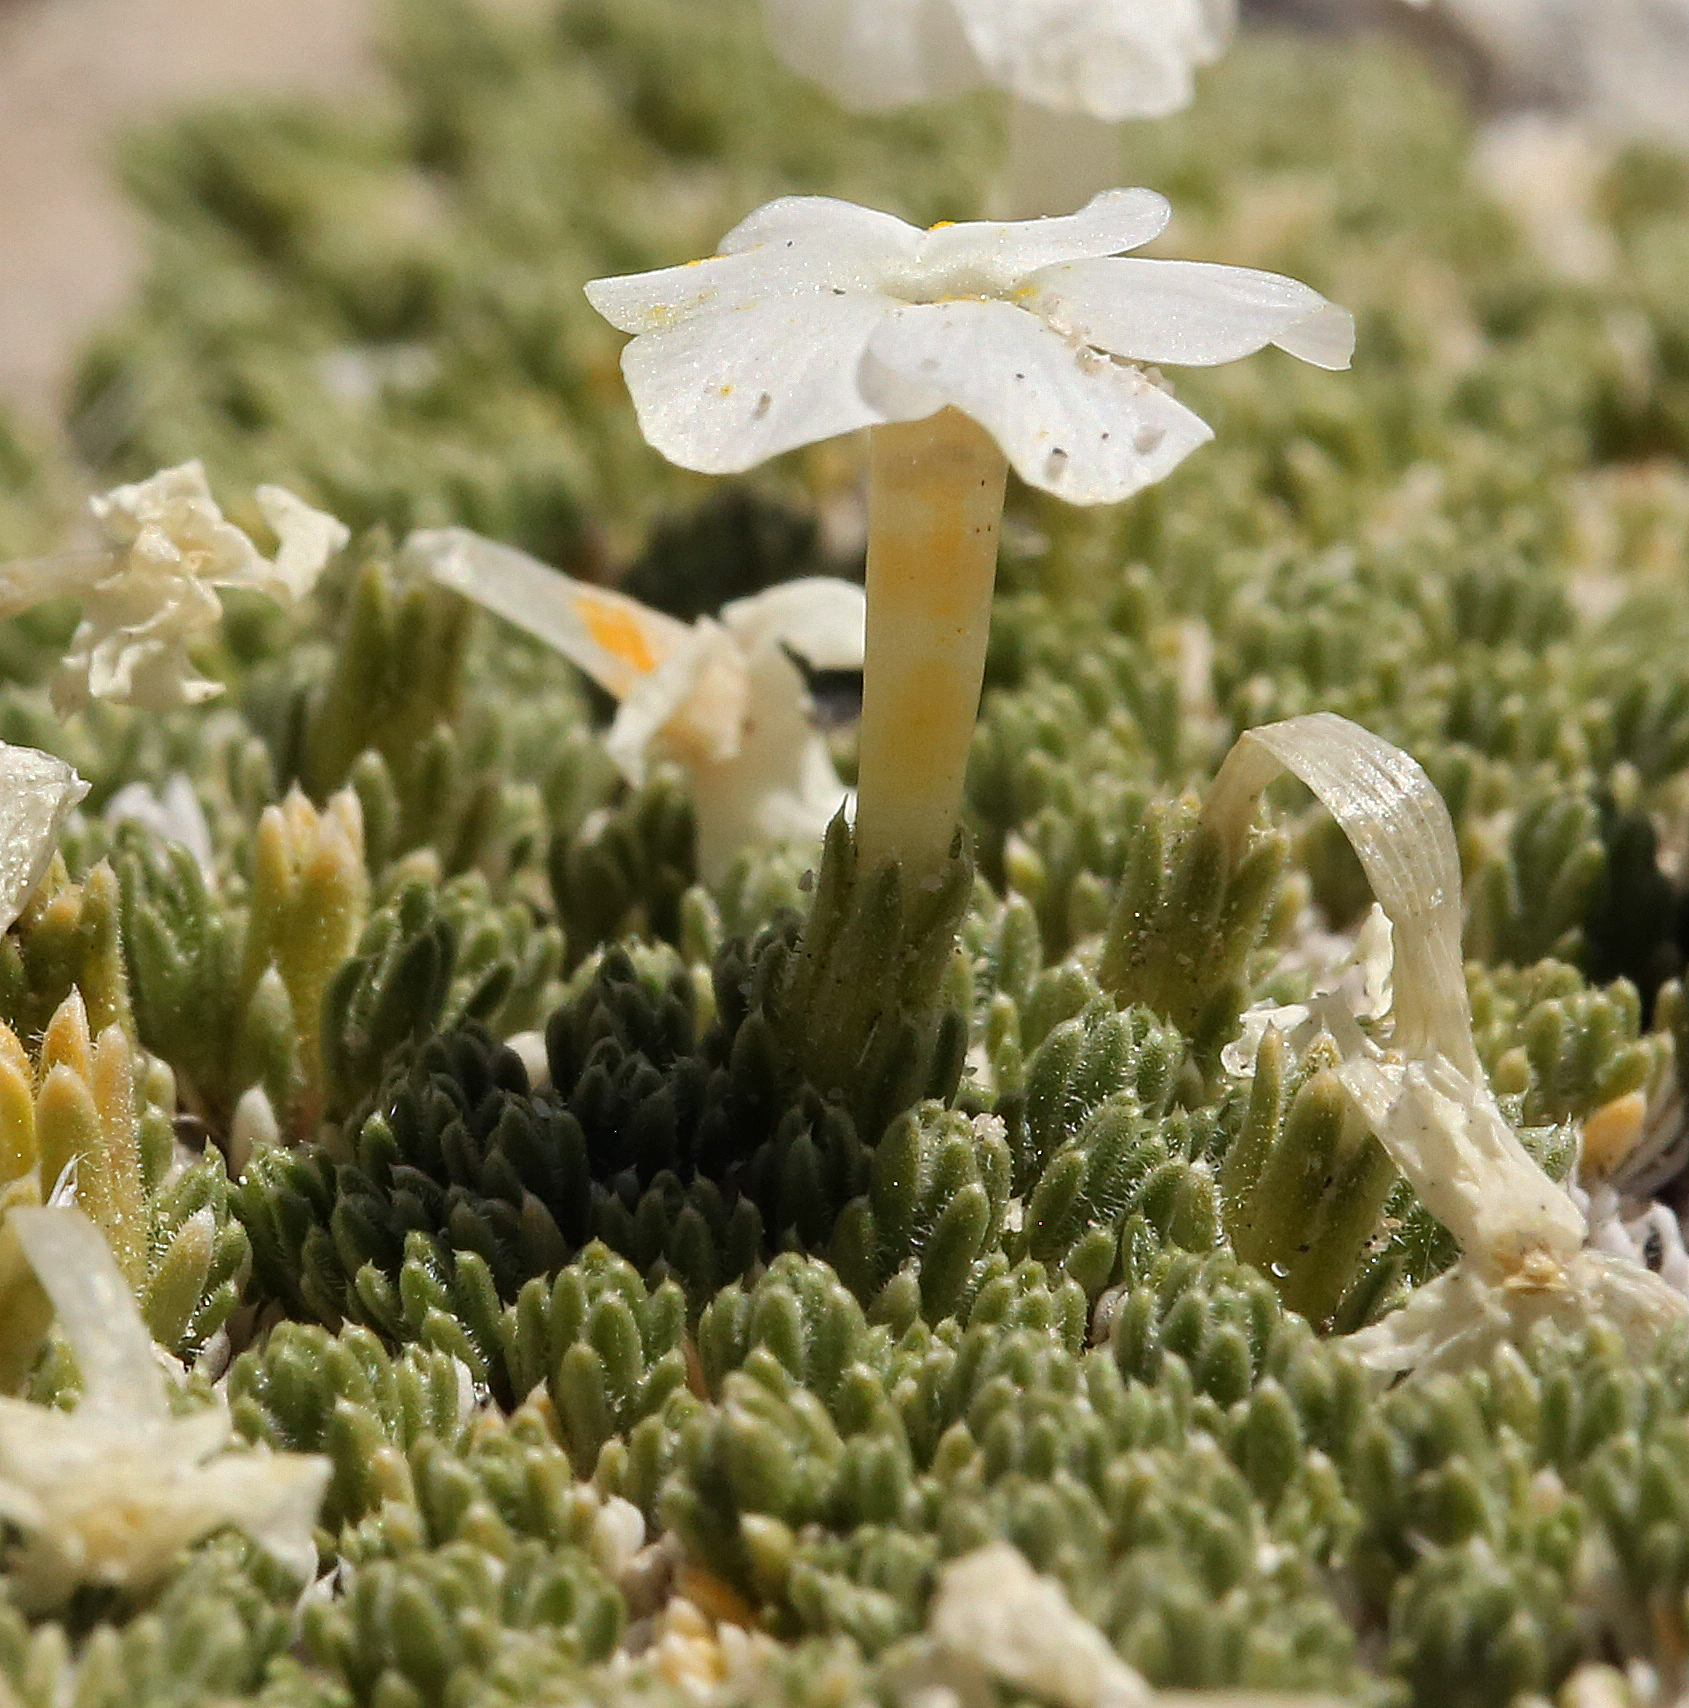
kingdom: Plantae
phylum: Tracheophyta
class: Magnoliopsida
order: Ericales
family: Polemoniaceae
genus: Phlox
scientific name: Phlox condensata
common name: Compact phlox
